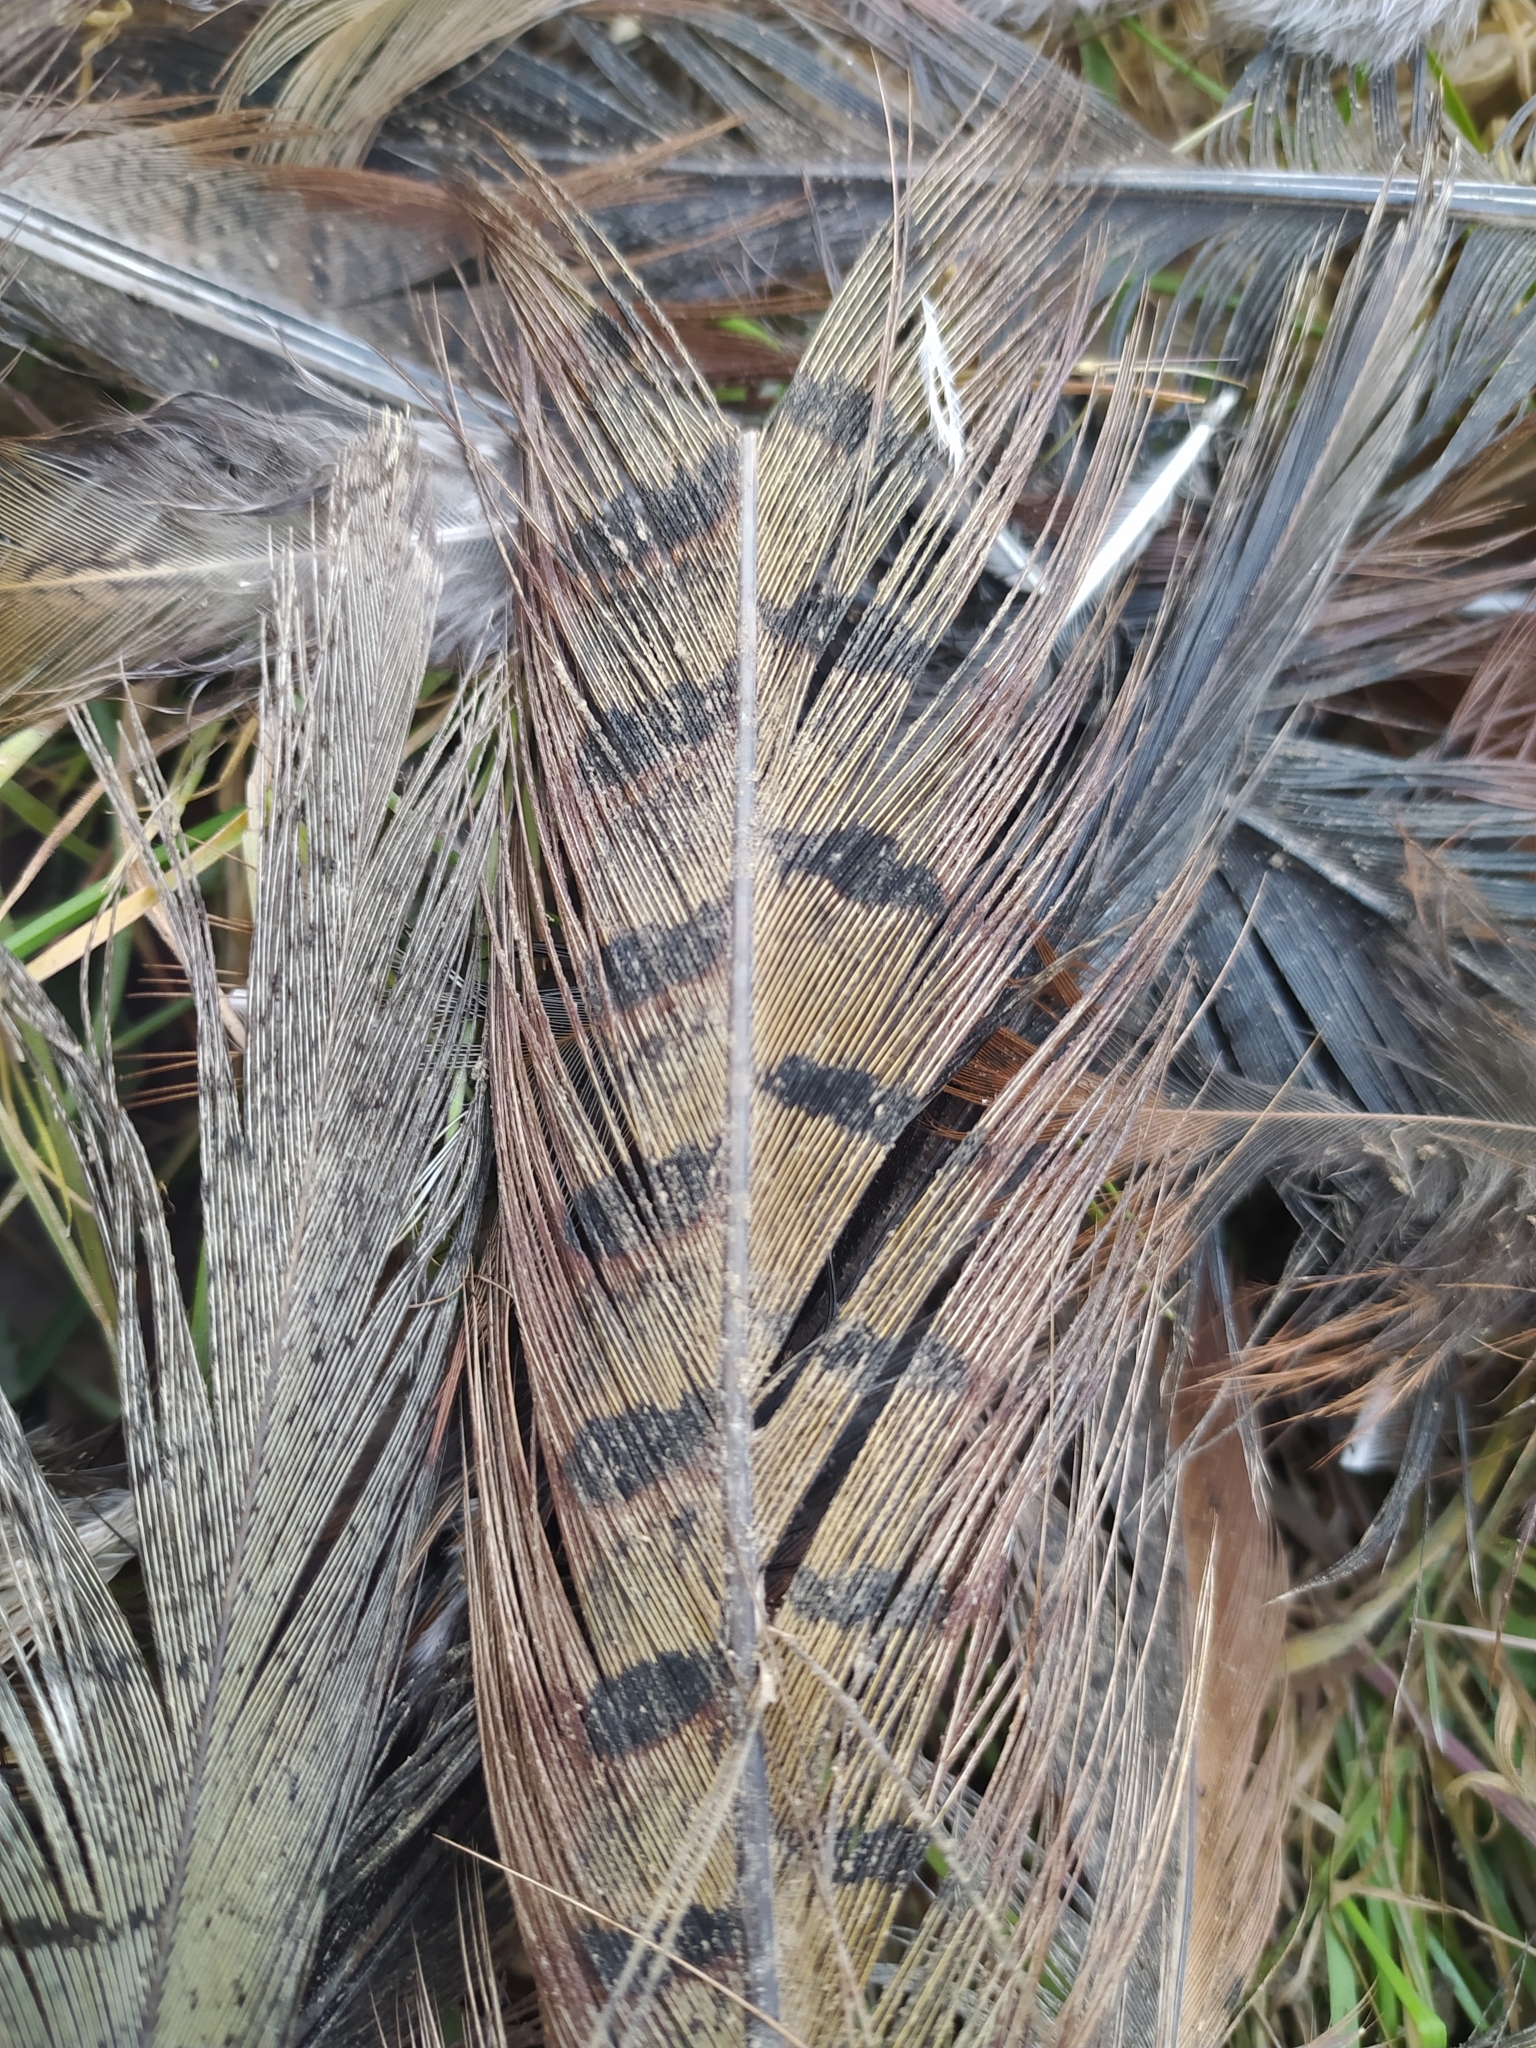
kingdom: Animalia
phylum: Chordata
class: Aves
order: Galliformes
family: Phasianidae
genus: Phasianus
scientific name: Phasianus colchicus
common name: Common pheasant
